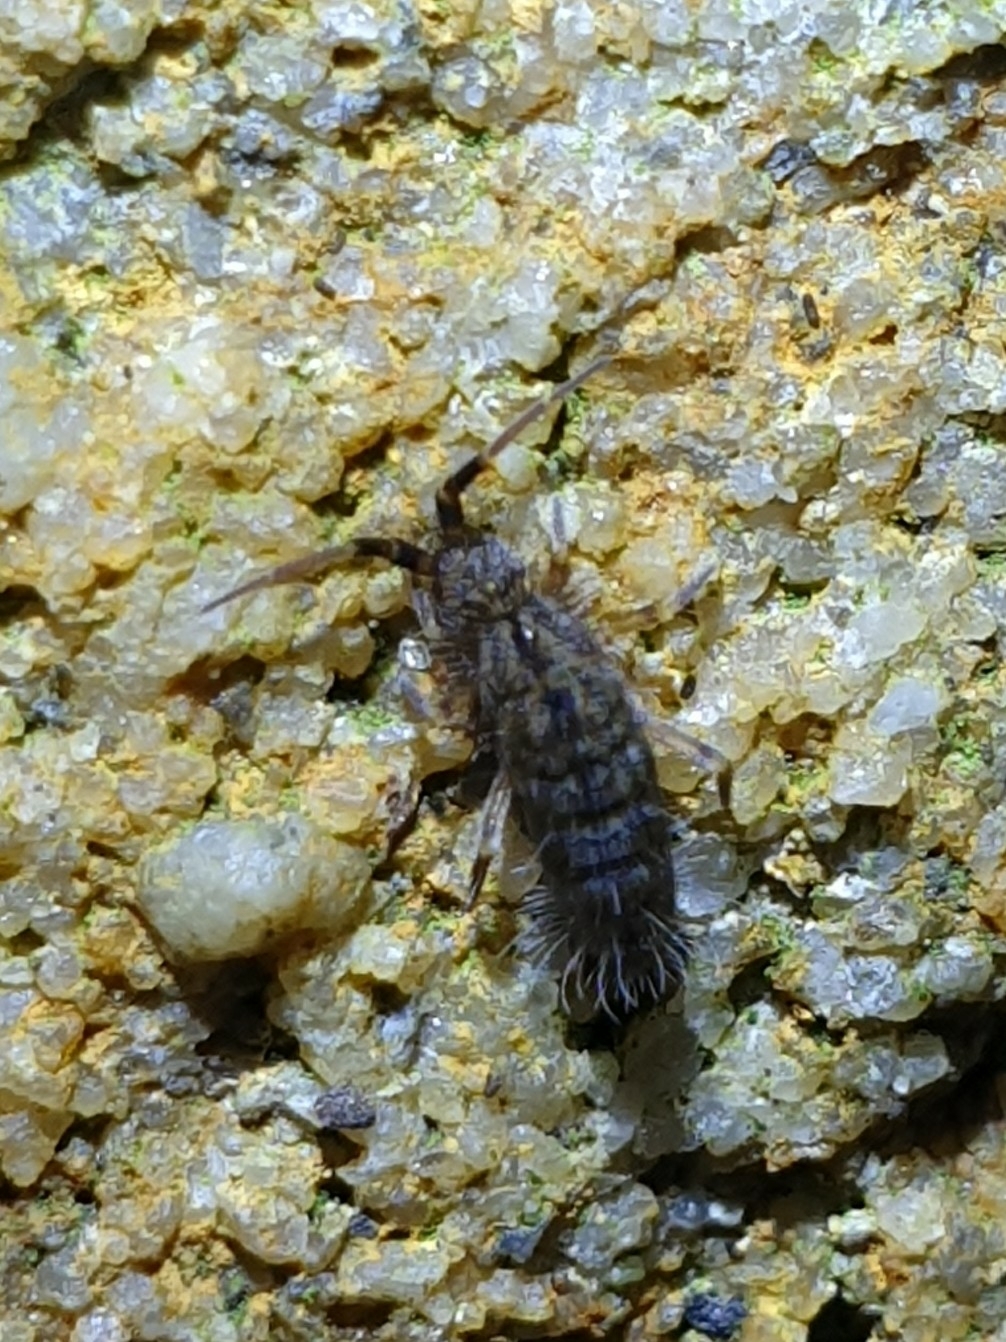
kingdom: Animalia
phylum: Arthropoda
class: Collembola
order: Entomobryomorpha
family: Orchesellidae
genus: Orchesella
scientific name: Orchesella villosa
